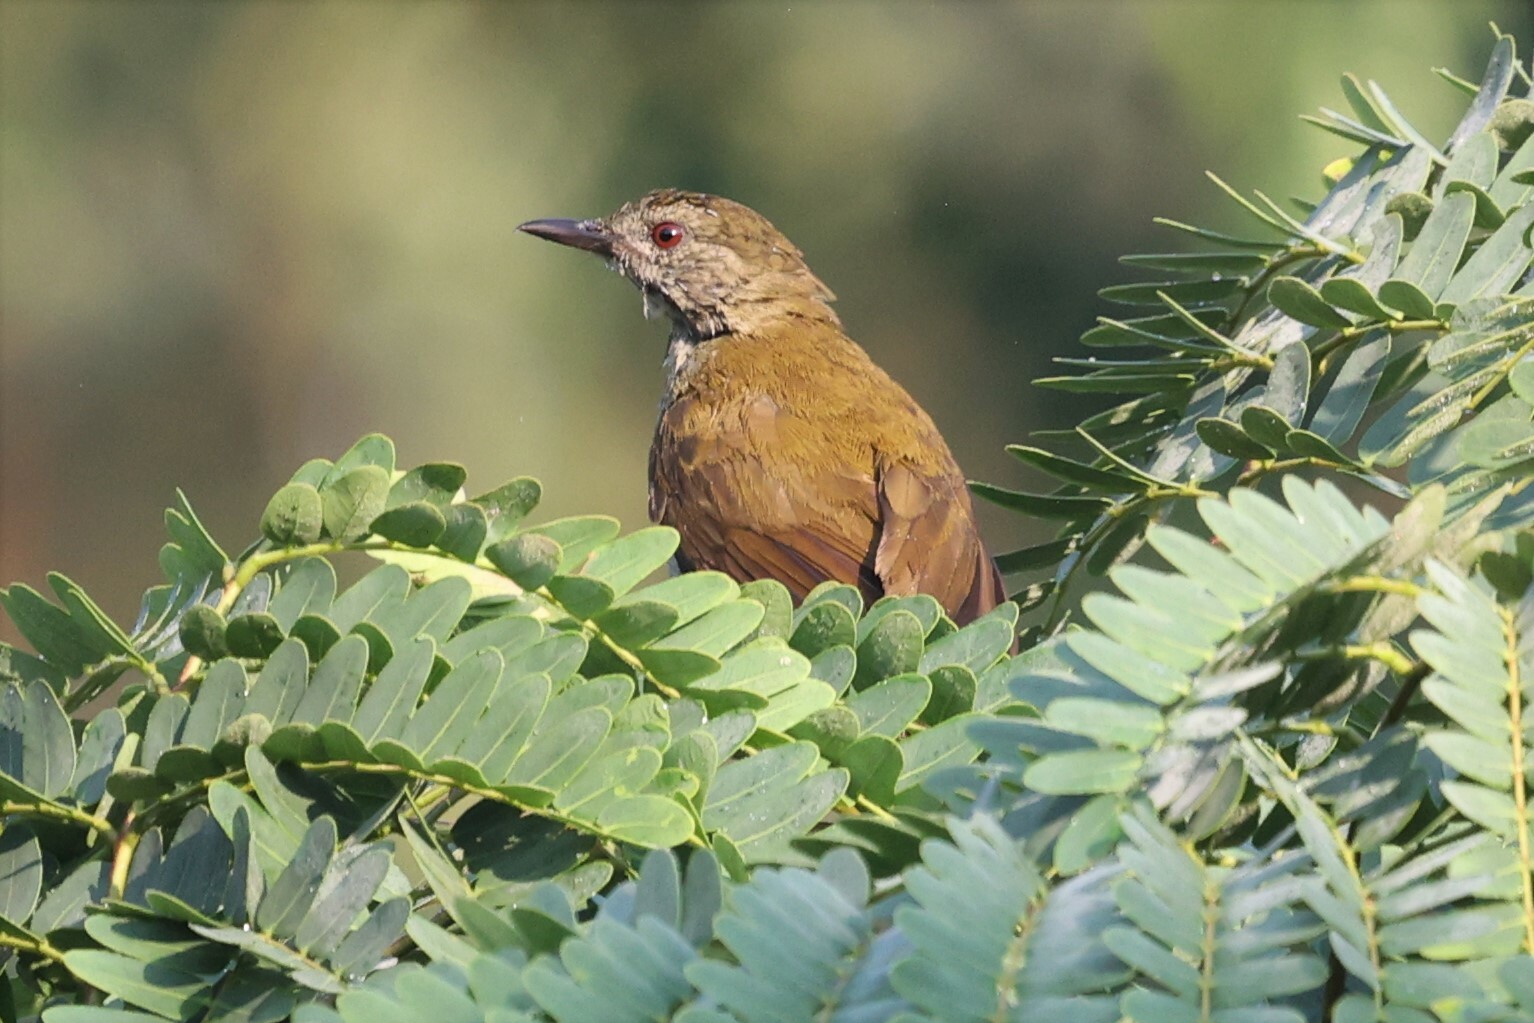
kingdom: Animalia
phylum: Chordata
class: Aves
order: Passeriformes
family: Pycnonotidae
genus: Stelgidillas
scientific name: Stelgidillas gracilirostris
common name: Slender-billed greenbul
